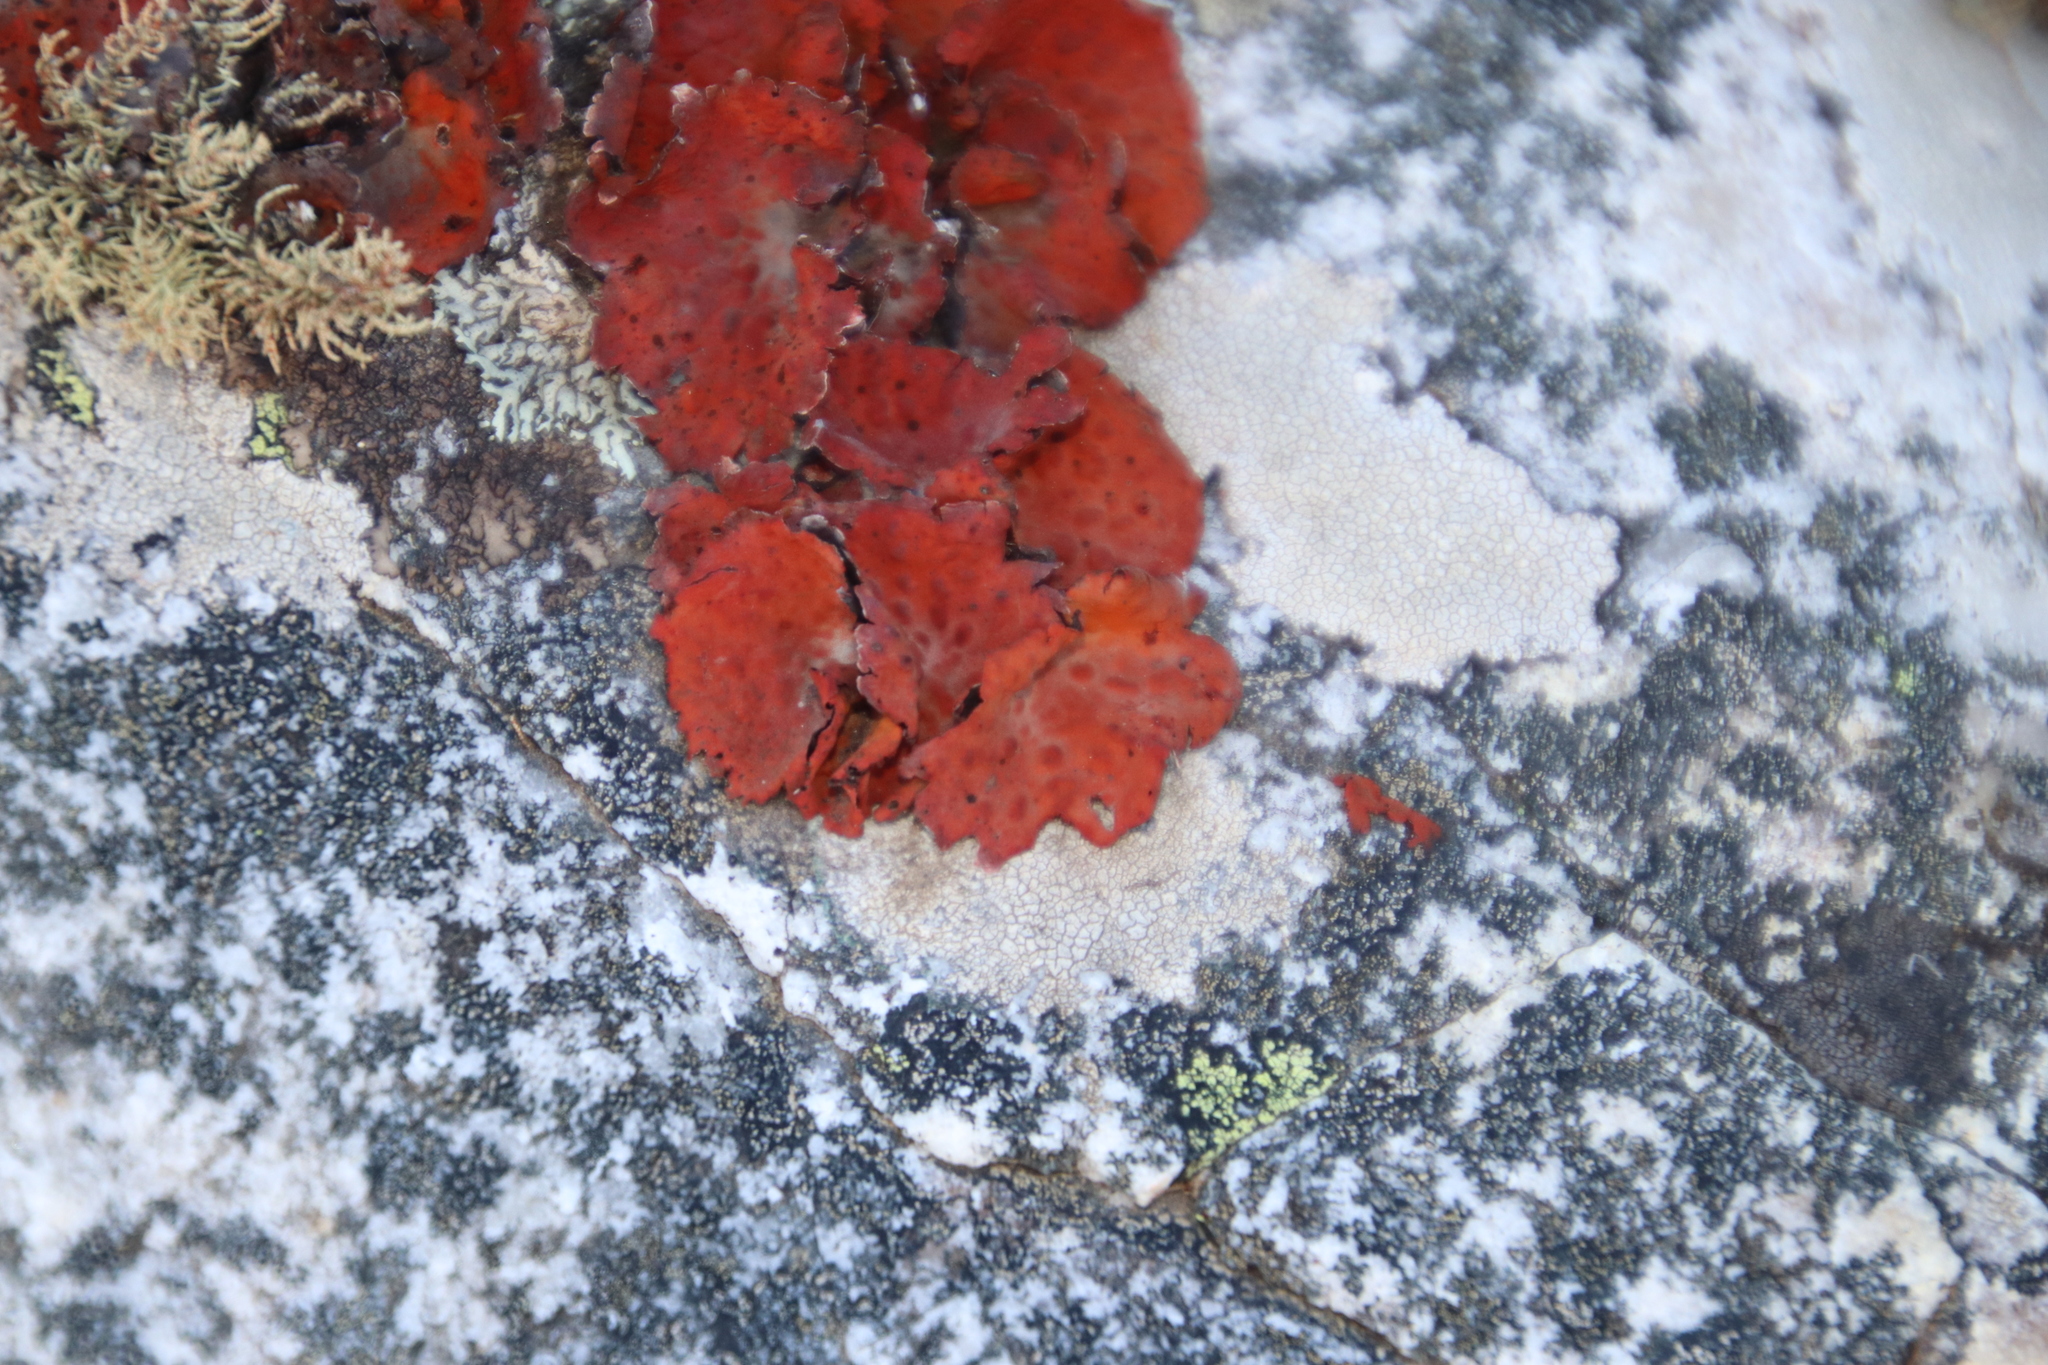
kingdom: Fungi
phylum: Ascomycota
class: Lecanoromycetes
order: Umbilicariales
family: Umbilicariaceae
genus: Lasallia
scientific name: Lasallia rubiginosa
